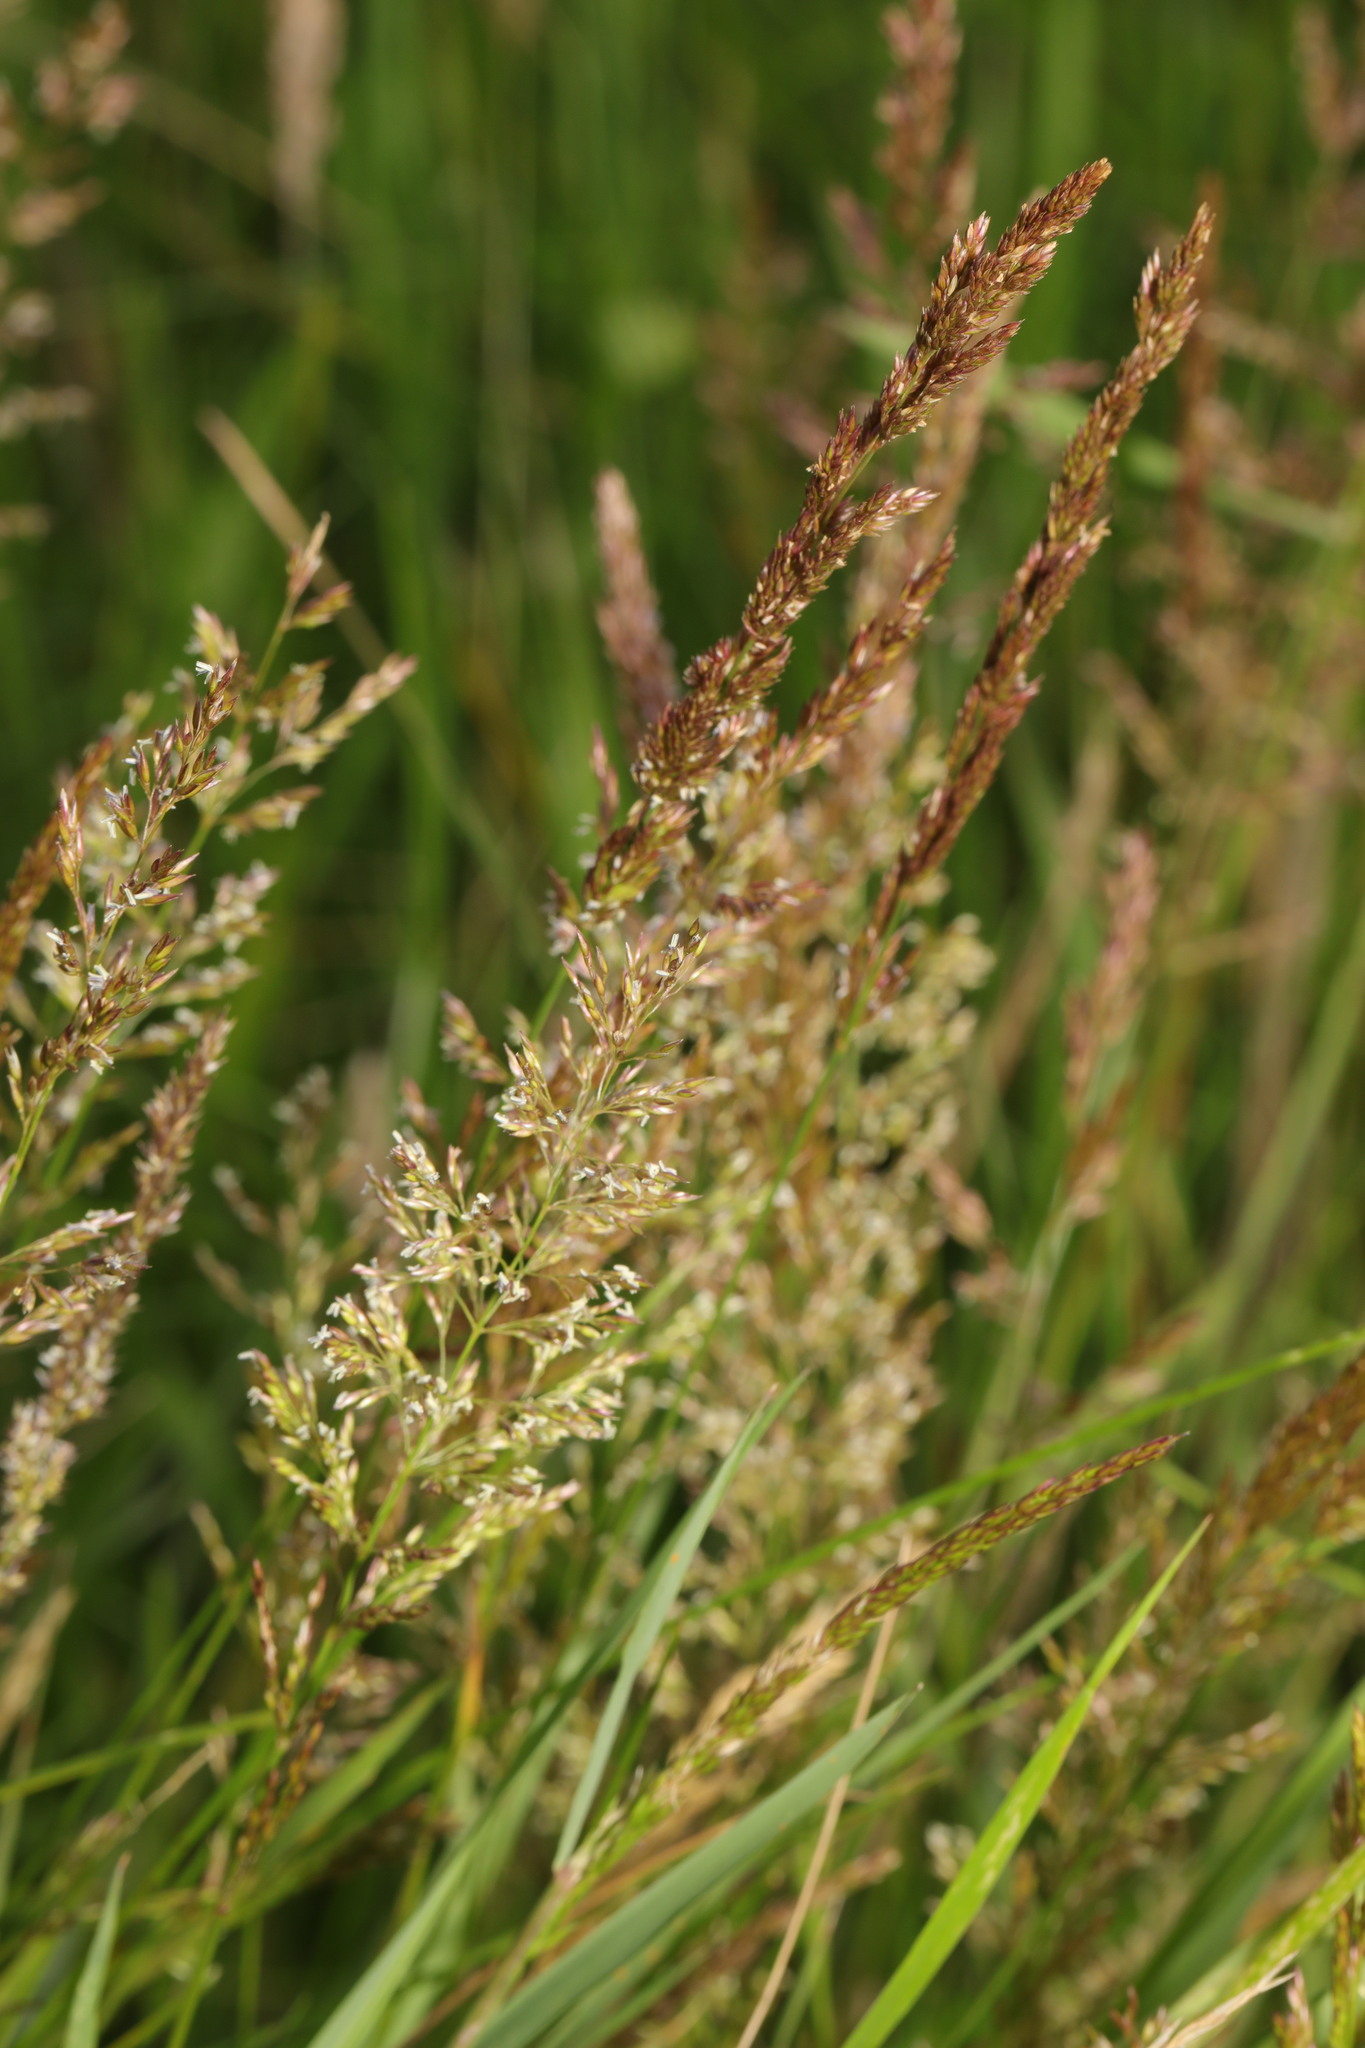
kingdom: Plantae
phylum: Tracheophyta
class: Liliopsida
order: Poales
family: Poaceae
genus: Agrostis
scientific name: Agrostis stolonifera
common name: Creeping bentgrass
